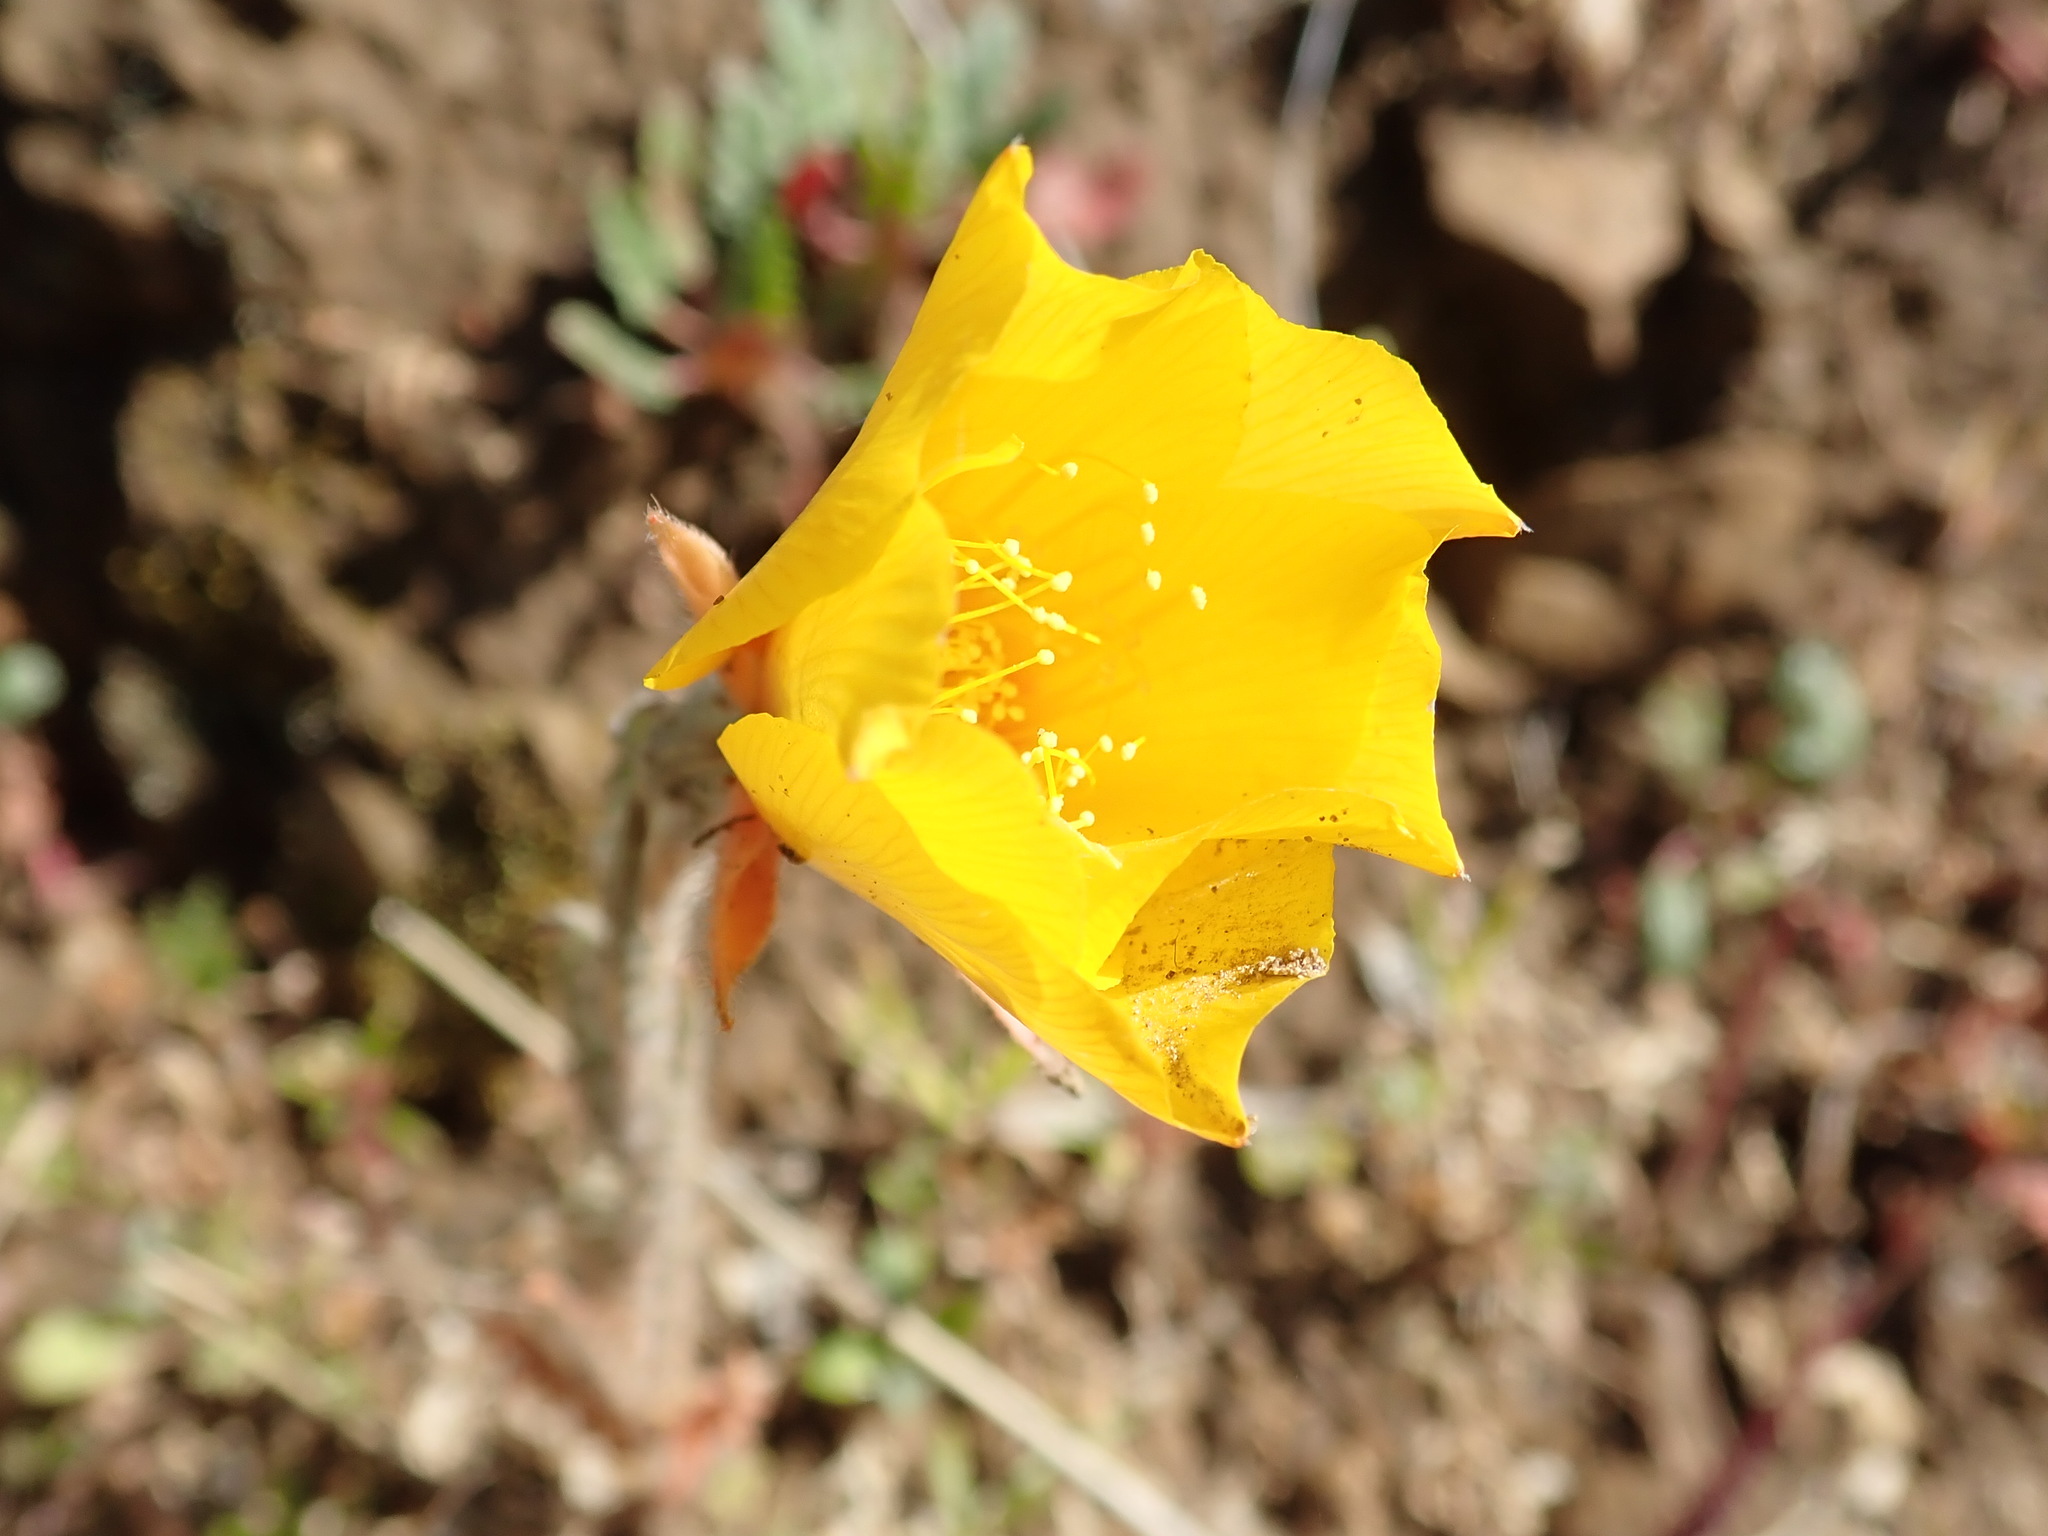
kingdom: Plantae
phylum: Tracheophyta
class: Magnoliopsida
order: Cornales
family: Loasaceae
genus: Mentzelia
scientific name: Mentzelia lindleyi
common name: Golden bartonia
